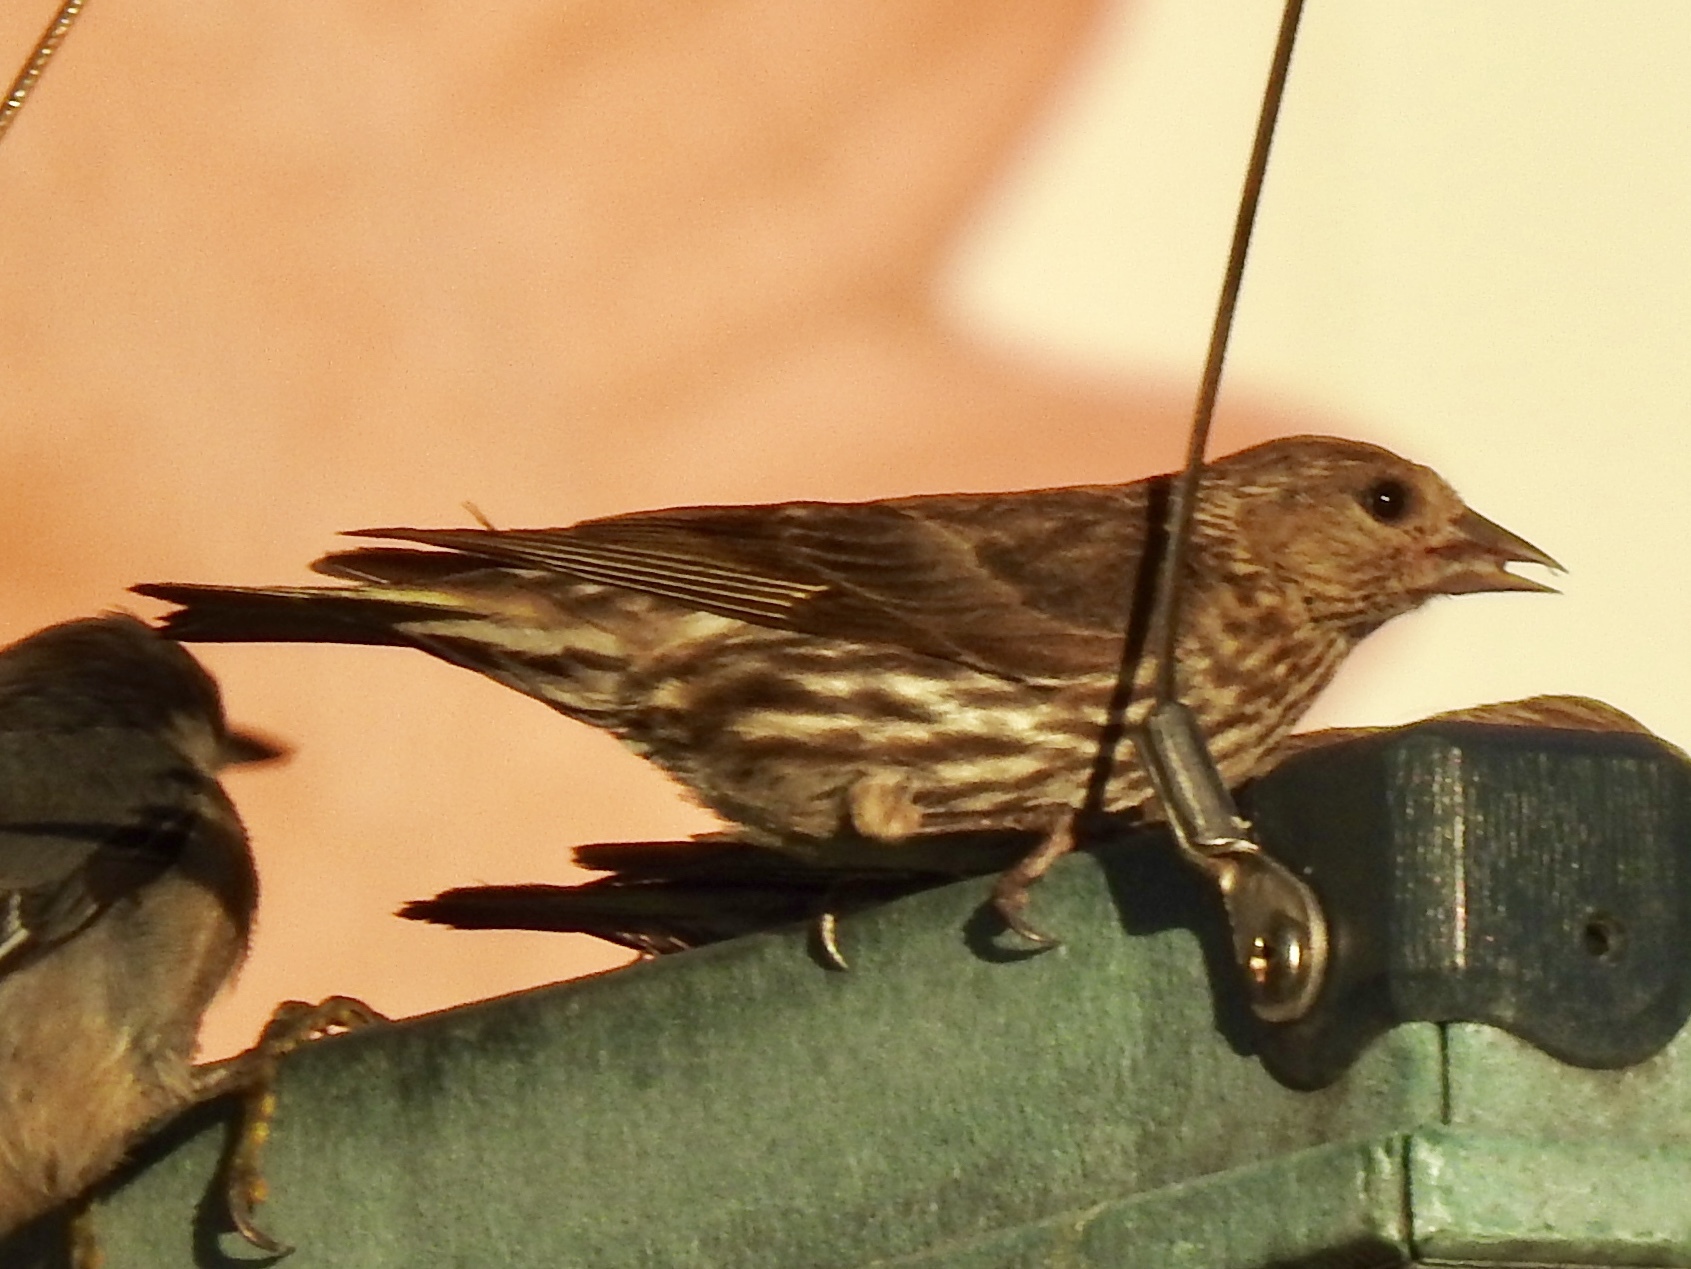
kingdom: Animalia
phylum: Chordata
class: Aves
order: Passeriformes
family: Fringillidae
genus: Spinus
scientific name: Spinus pinus
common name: Pine siskin
